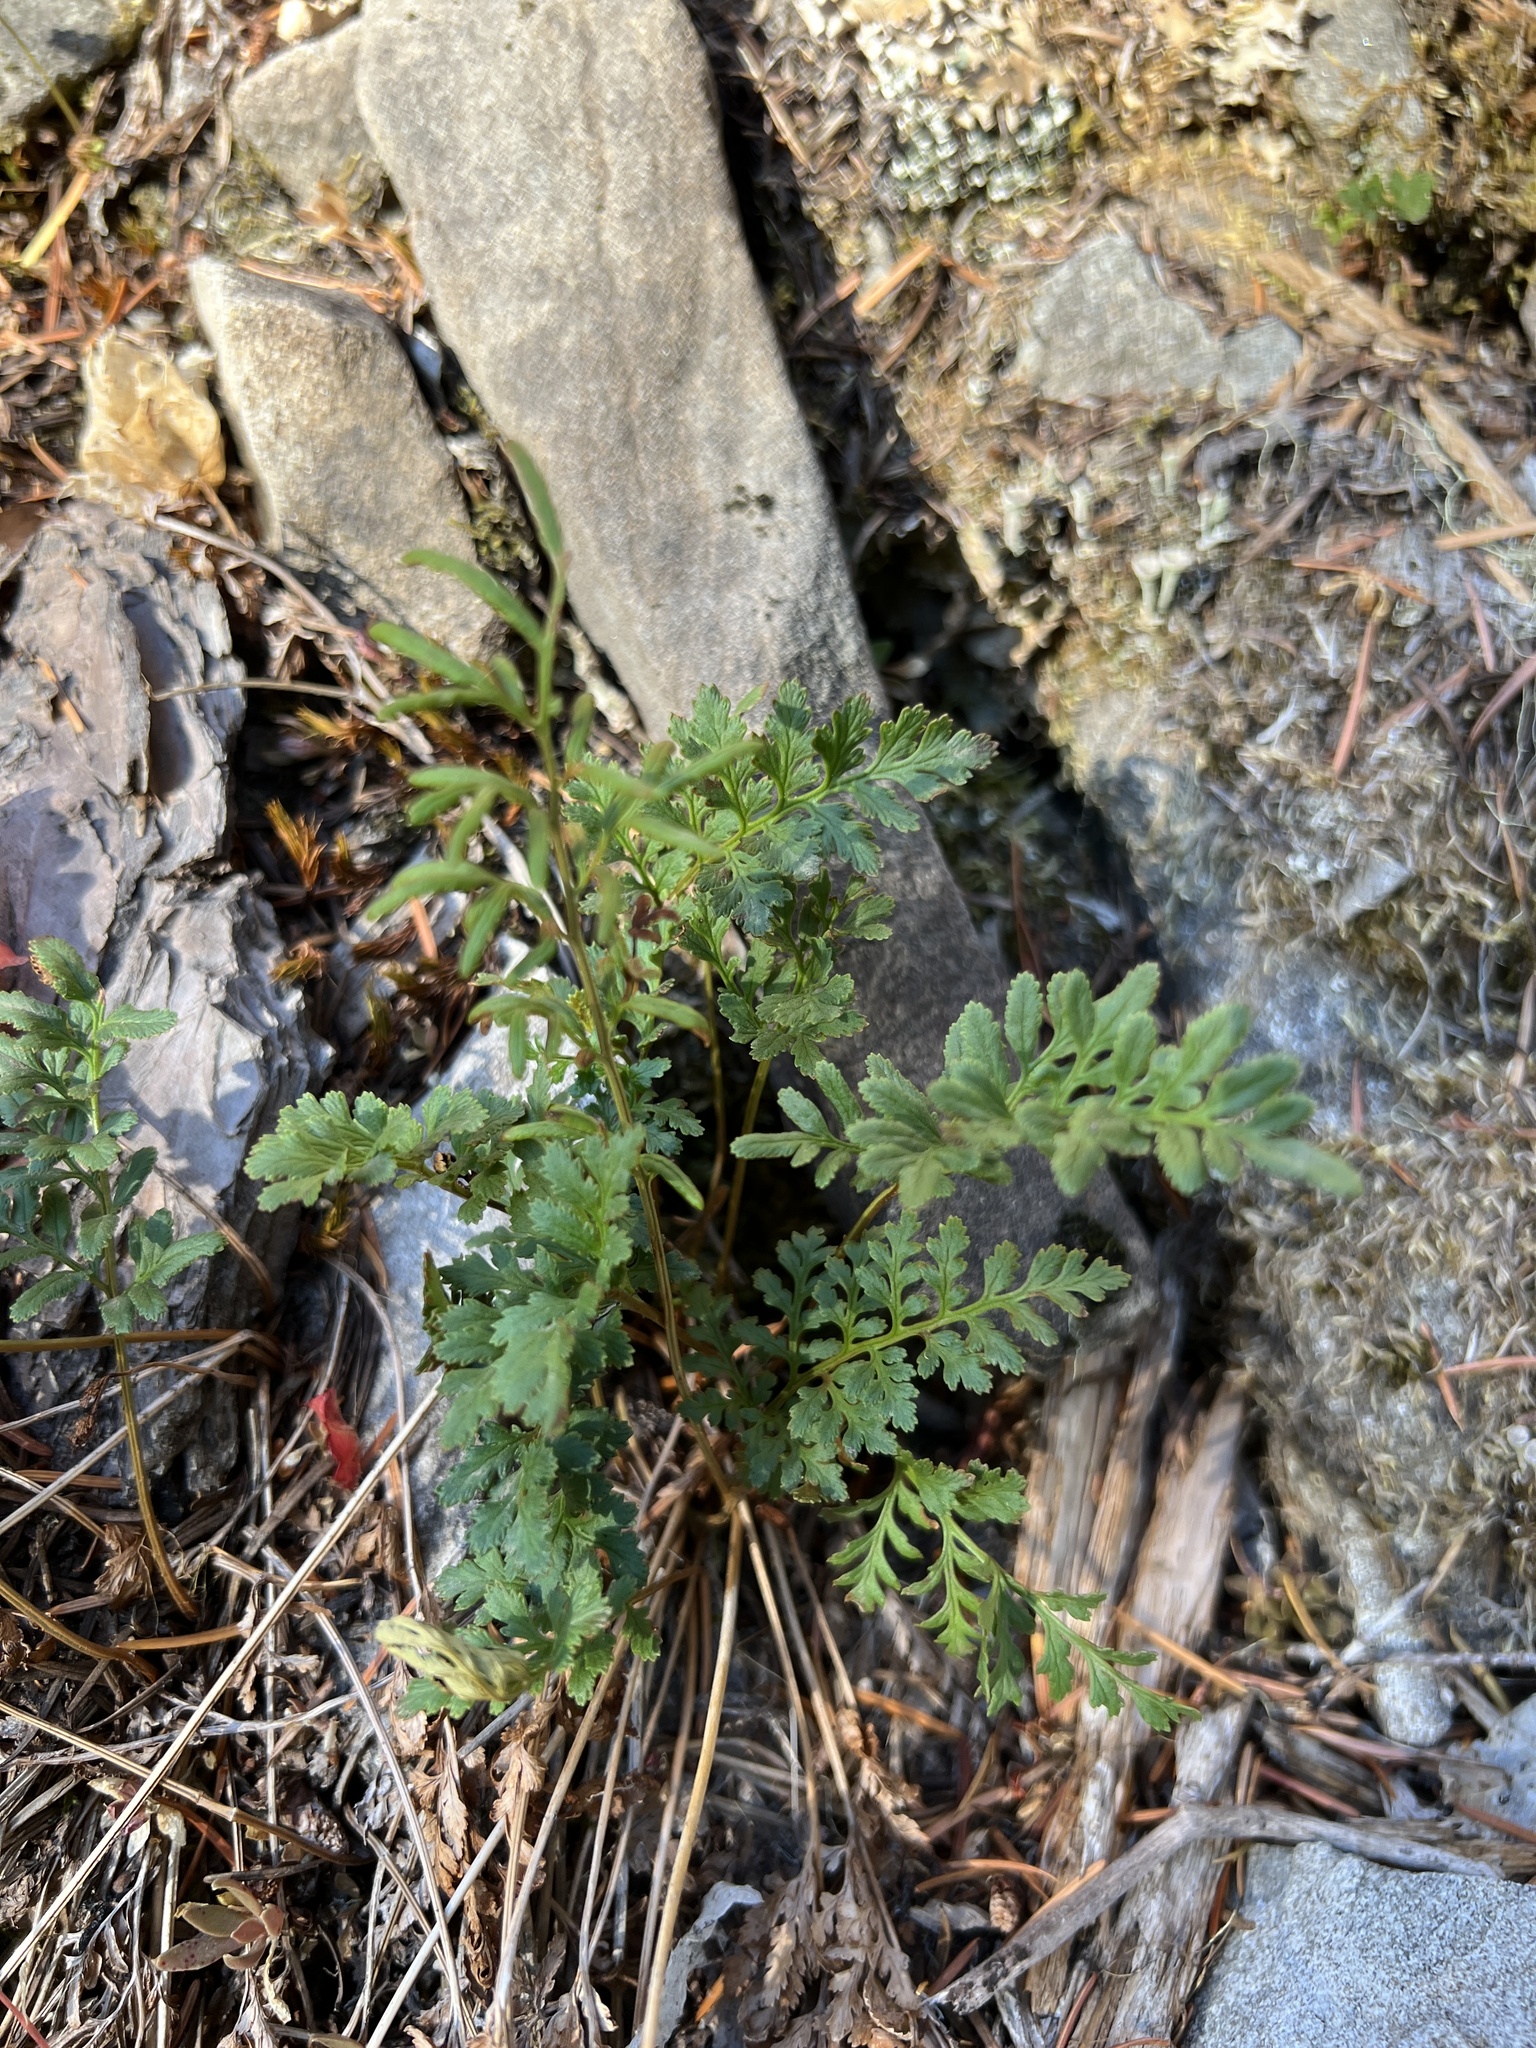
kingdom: Plantae
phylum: Tracheophyta
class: Polypodiopsida
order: Polypodiales
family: Pteridaceae
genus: Cryptogramma
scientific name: Cryptogramma acrostichoides
